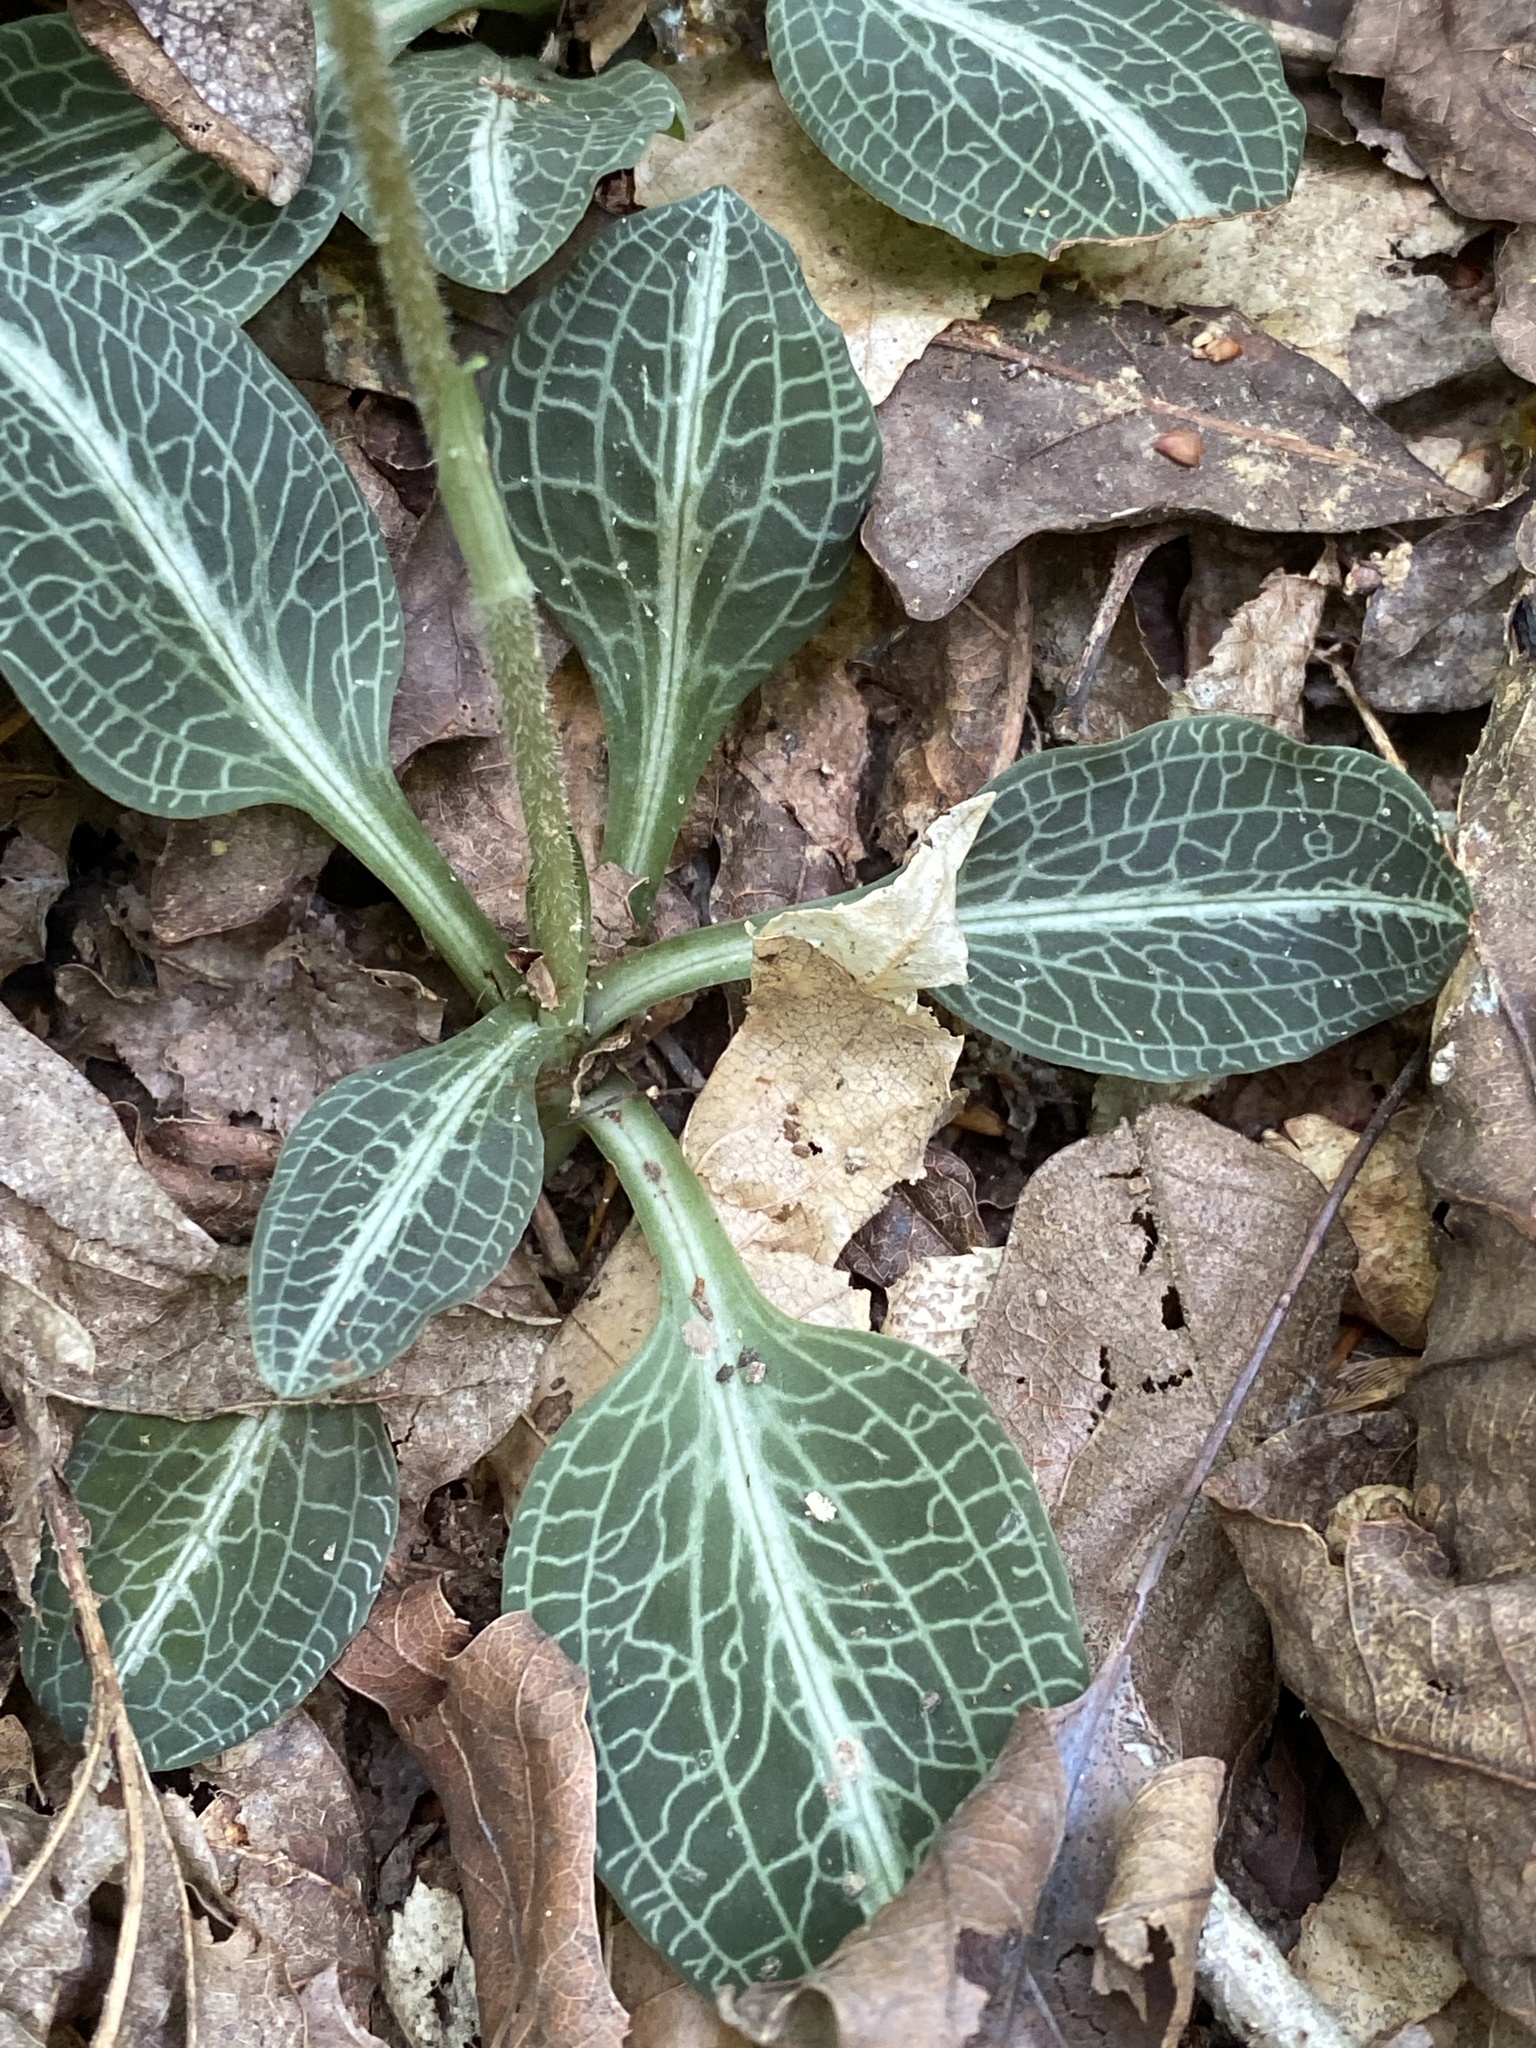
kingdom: Plantae
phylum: Tracheophyta
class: Liliopsida
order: Asparagales
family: Orchidaceae
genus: Goodyera
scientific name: Goodyera pubescens
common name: Downy rattlesnake-plantain
